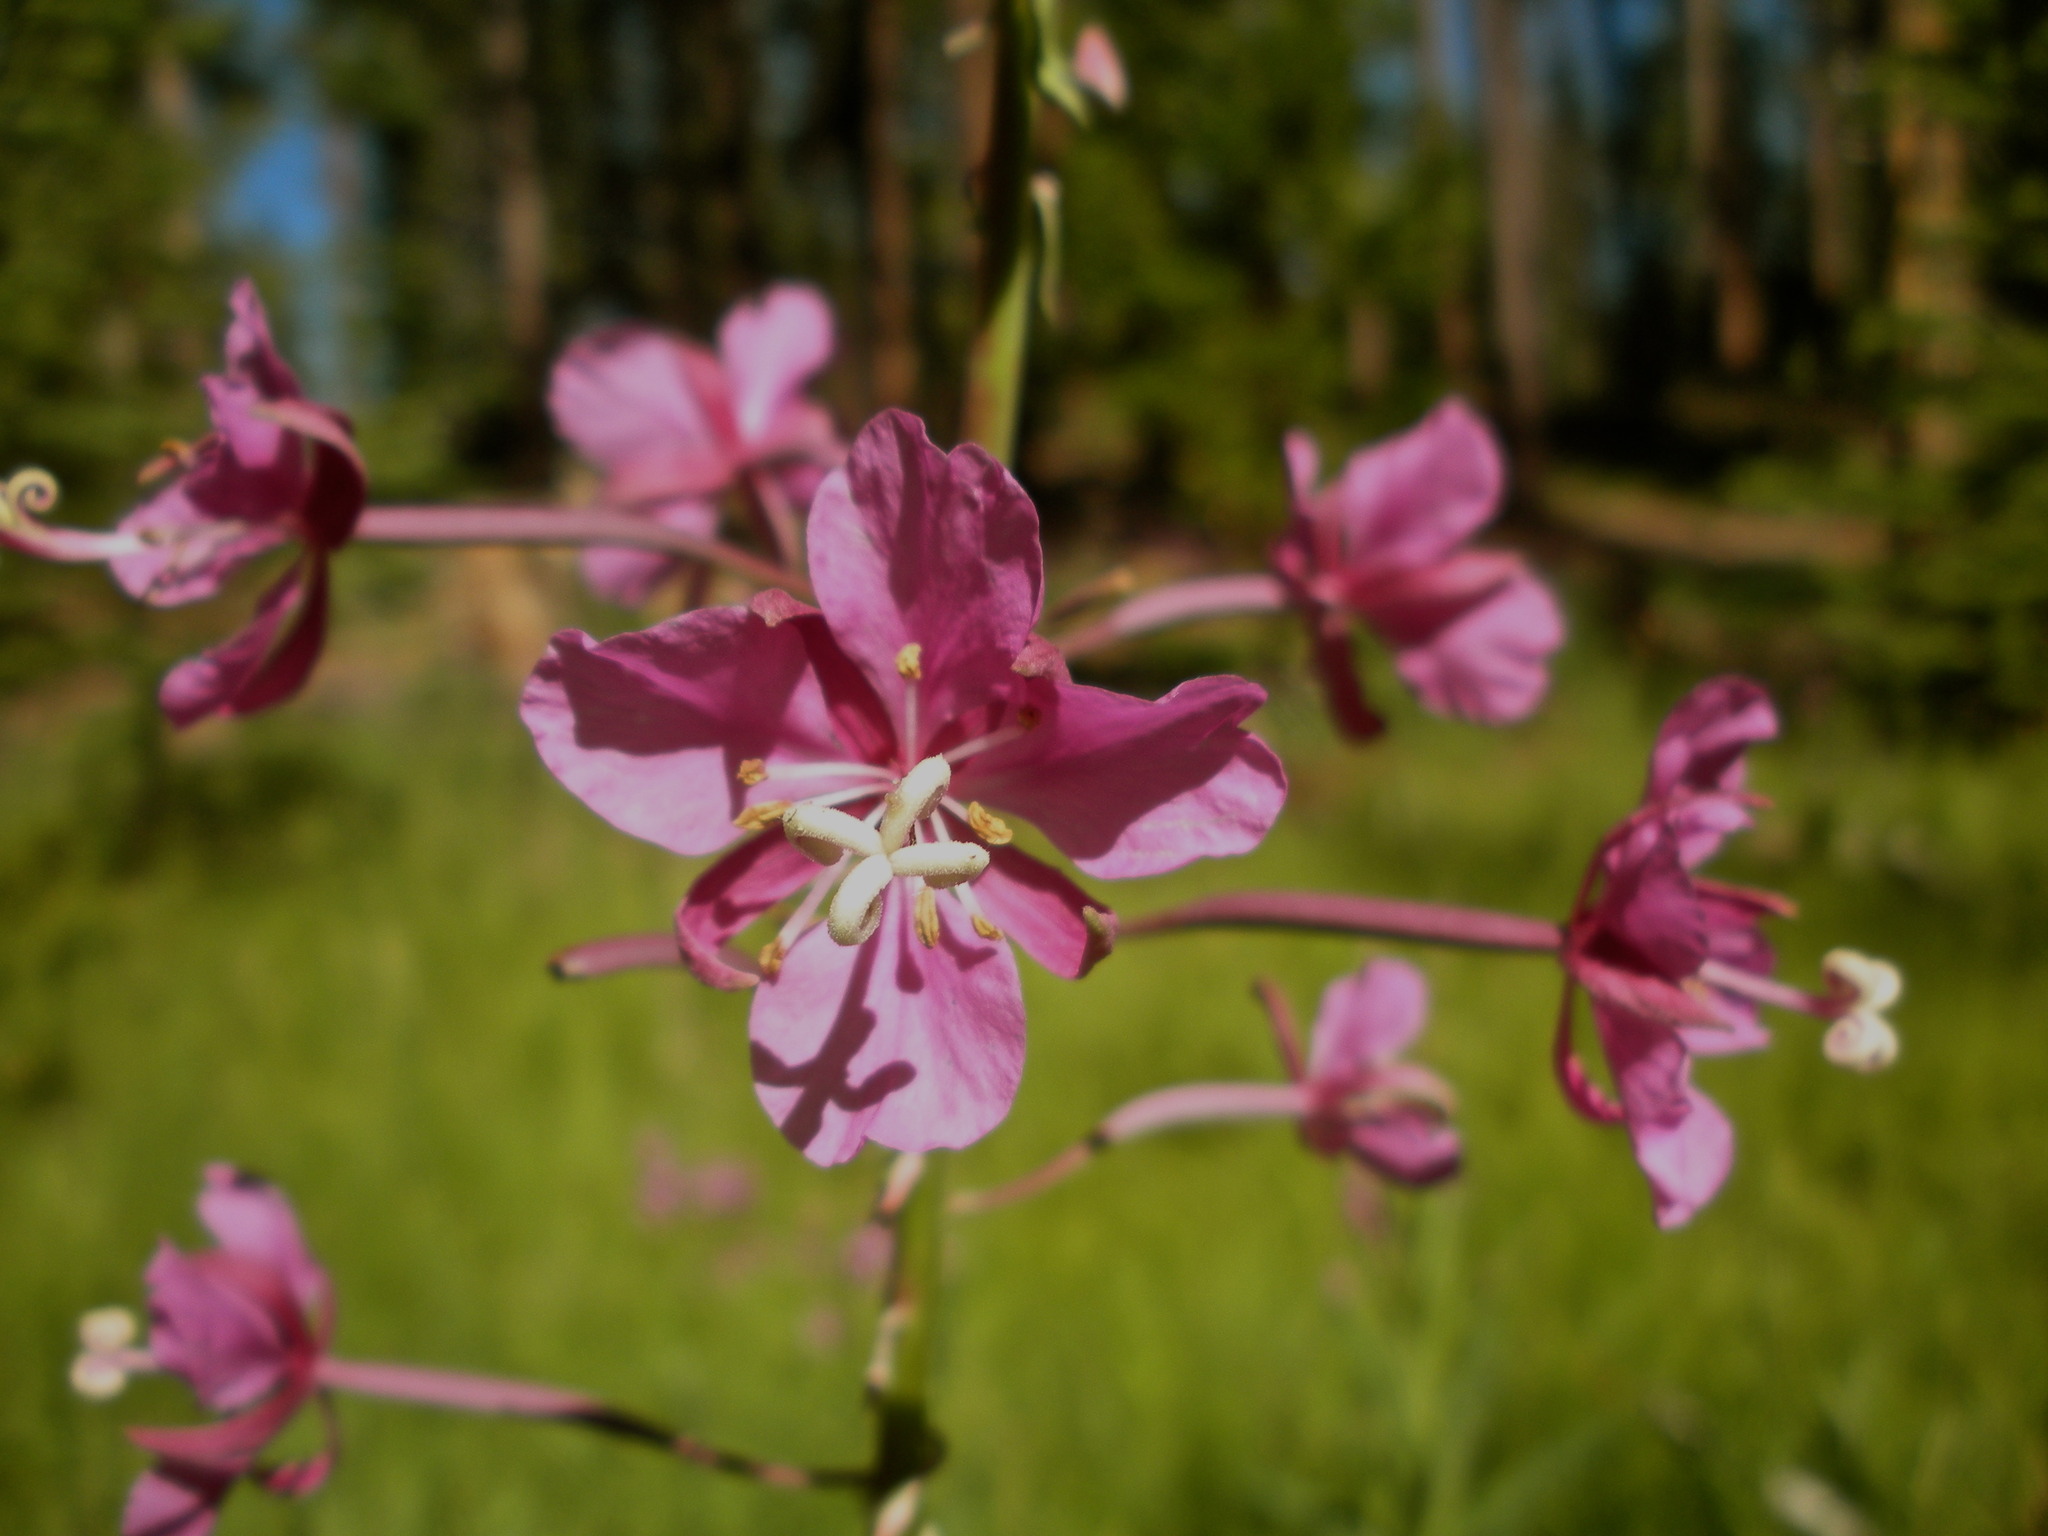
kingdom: Plantae
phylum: Tracheophyta
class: Magnoliopsida
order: Myrtales
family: Onagraceae
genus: Chamaenerion
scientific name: Chamaenerion angustifolium
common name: Fireweed
